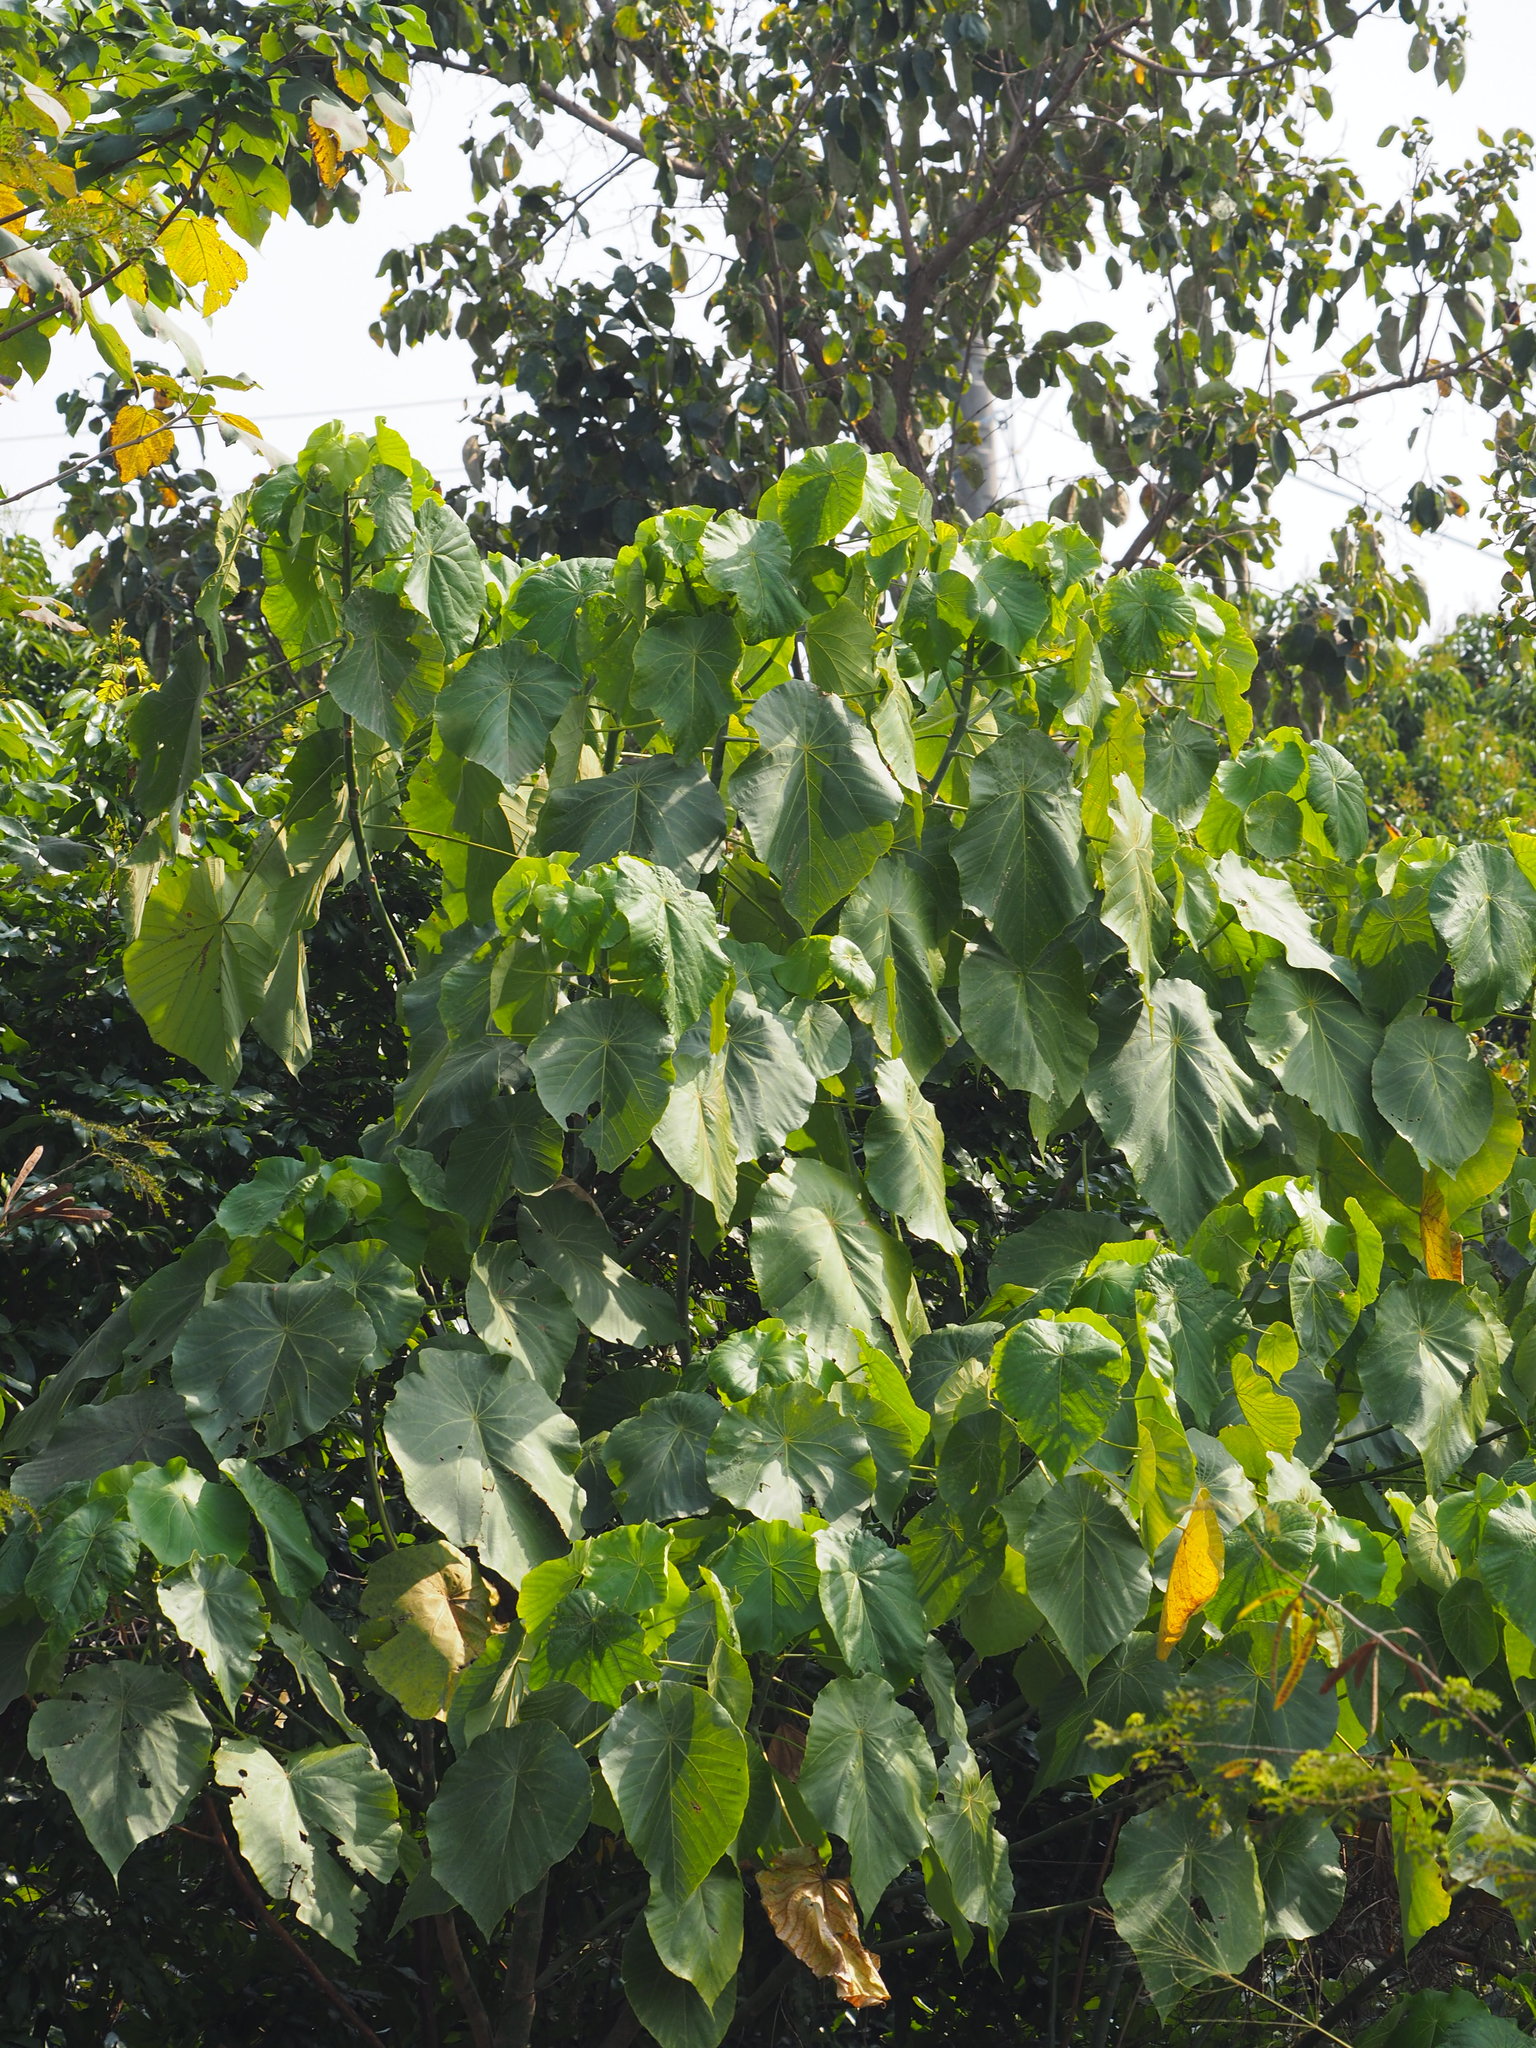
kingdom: Plantae
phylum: Tracheophyta
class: Magnoliopsida
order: Malpighiales
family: Euphorbiaceae
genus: Macaranga
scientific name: Macaranga tanarius
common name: Parasol leaf tree
